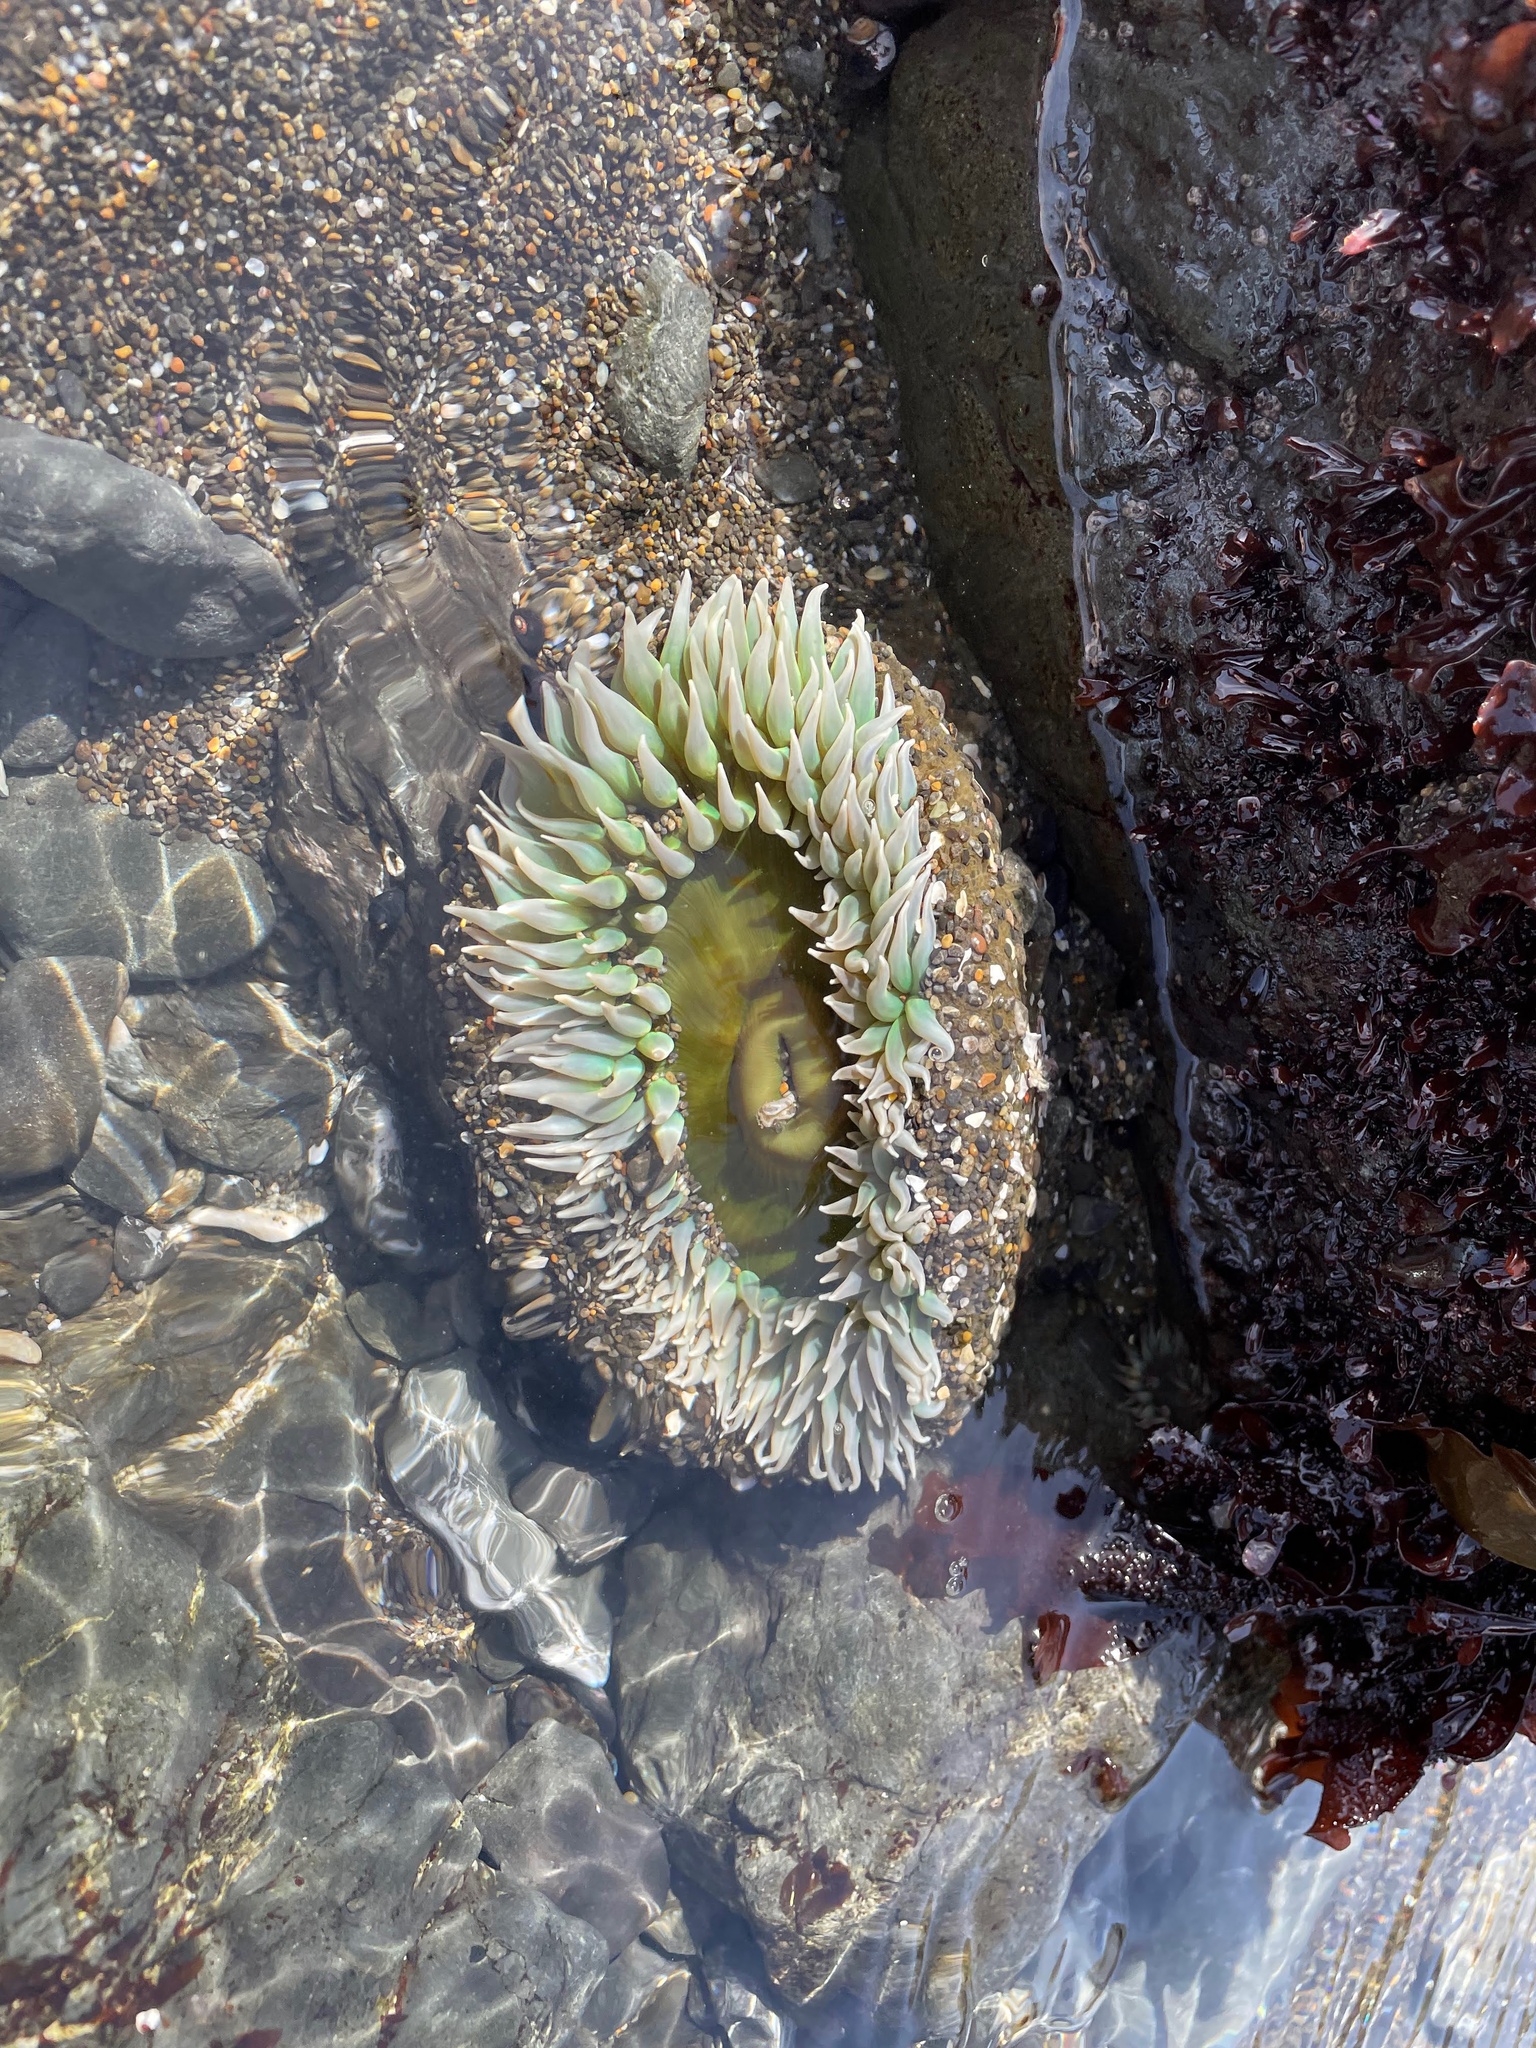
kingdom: Animalia
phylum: Cnidaria
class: Anthozoa
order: Actiniaria
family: Actiniidae
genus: Anthopleura
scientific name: Anthopleura xanthogrammica
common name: Giant green anemone
